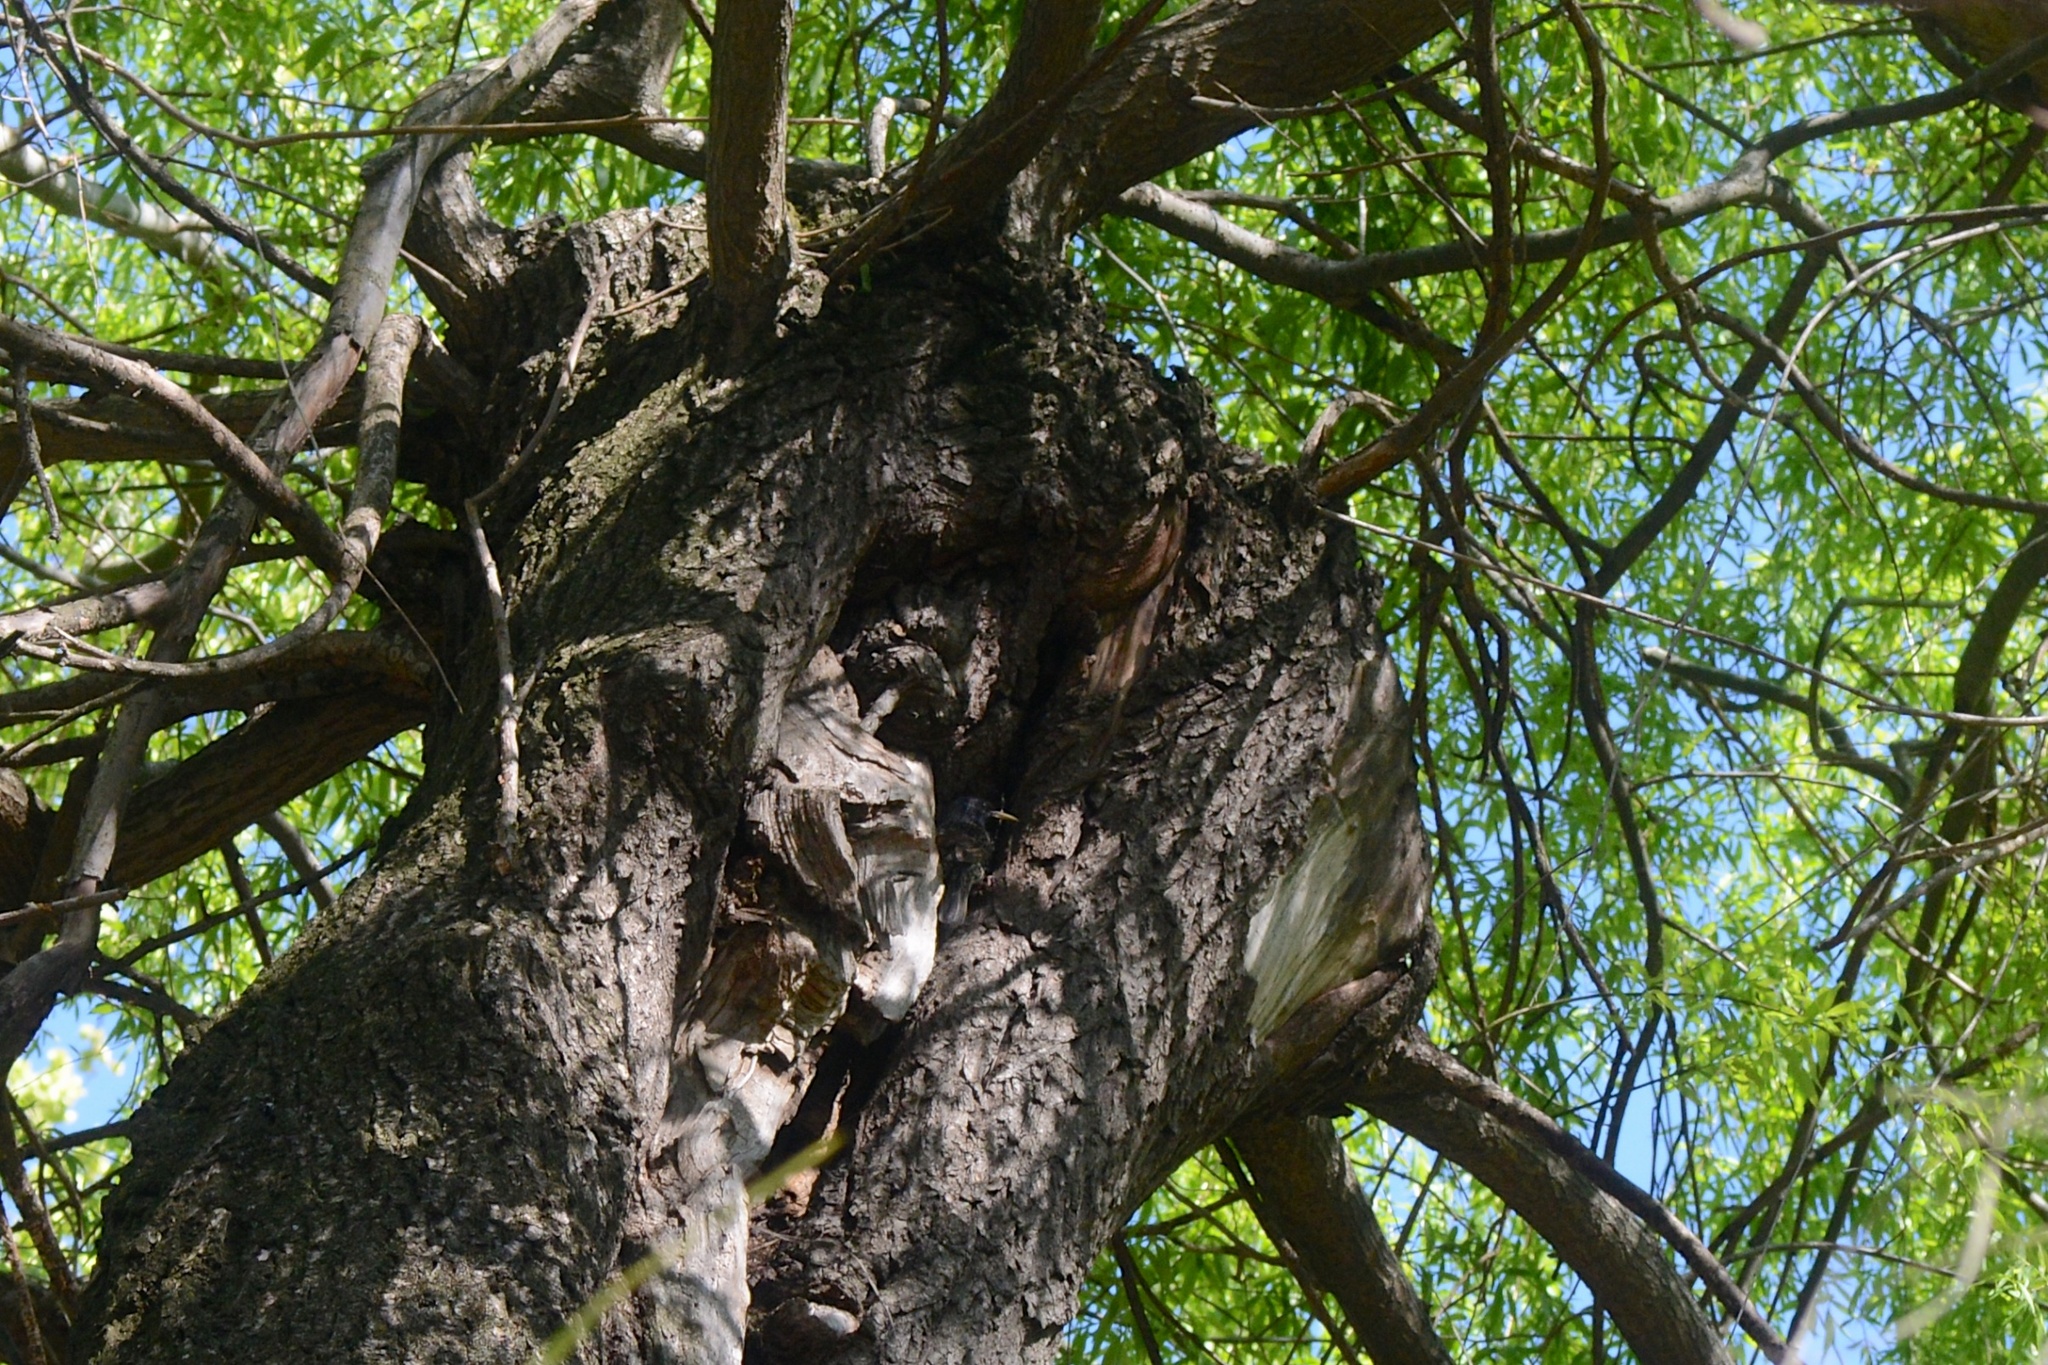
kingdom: Animalia
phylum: Chordata
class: Aves
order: Passeriformes
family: Sturnidae
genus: Sturnus
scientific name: Sturnus vulgaris
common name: Common starling
